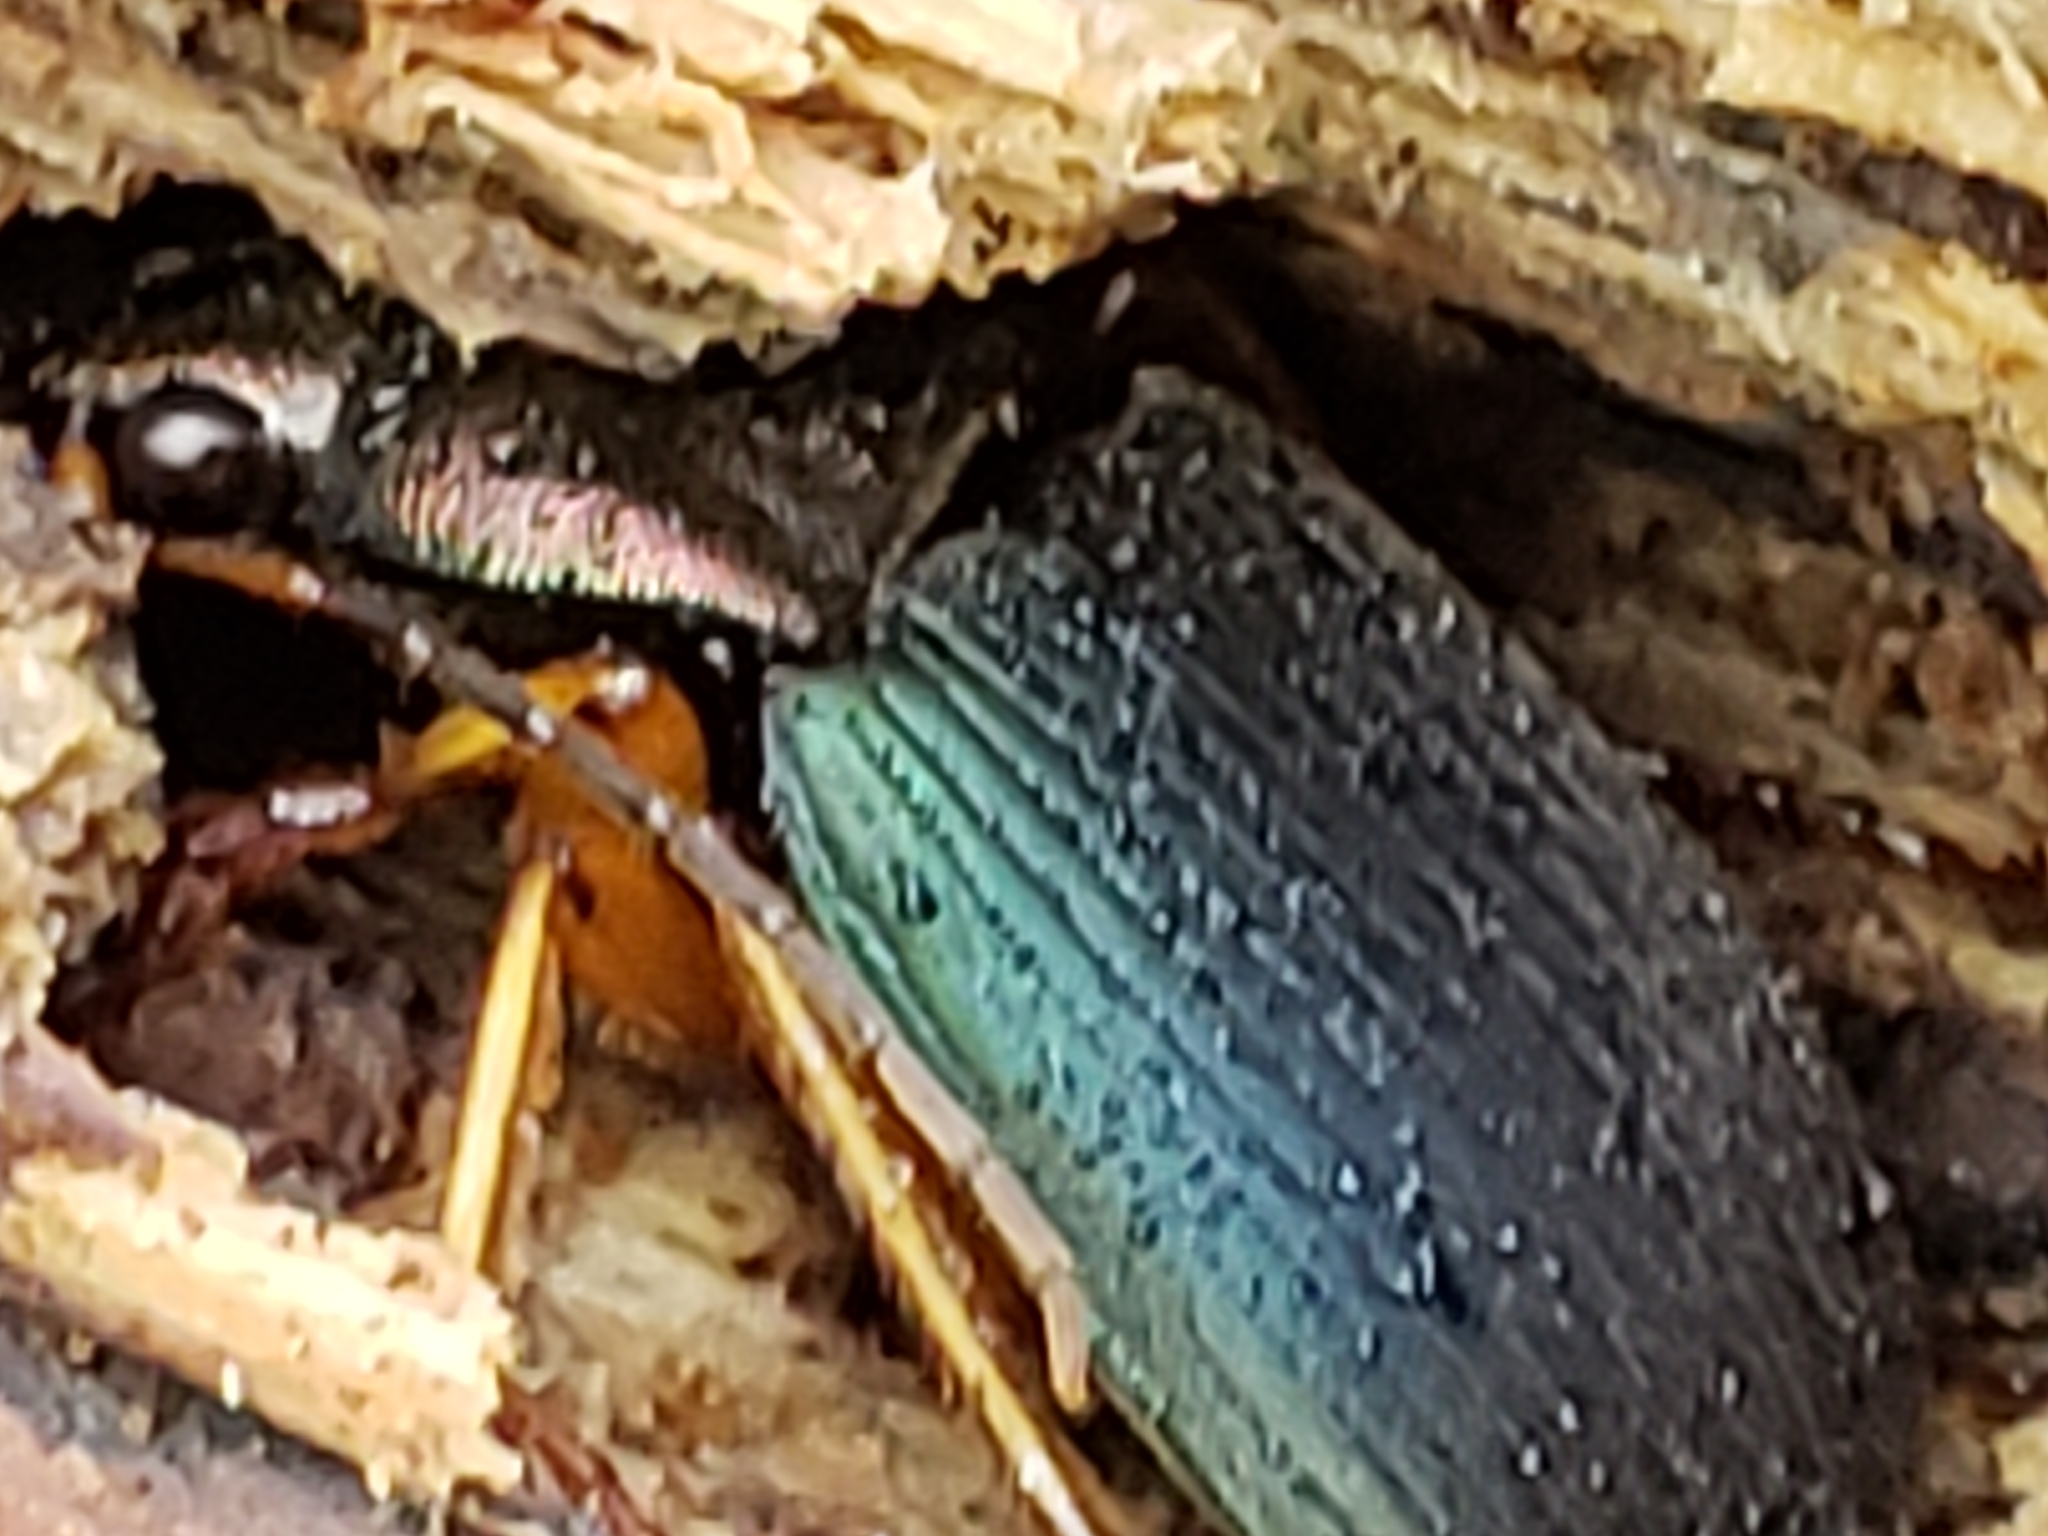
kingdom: Animalia
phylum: Arthropoda
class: Insecta
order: Coleoptera
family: Carabidae
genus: Chlaenius
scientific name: Chlaenius aestivus
